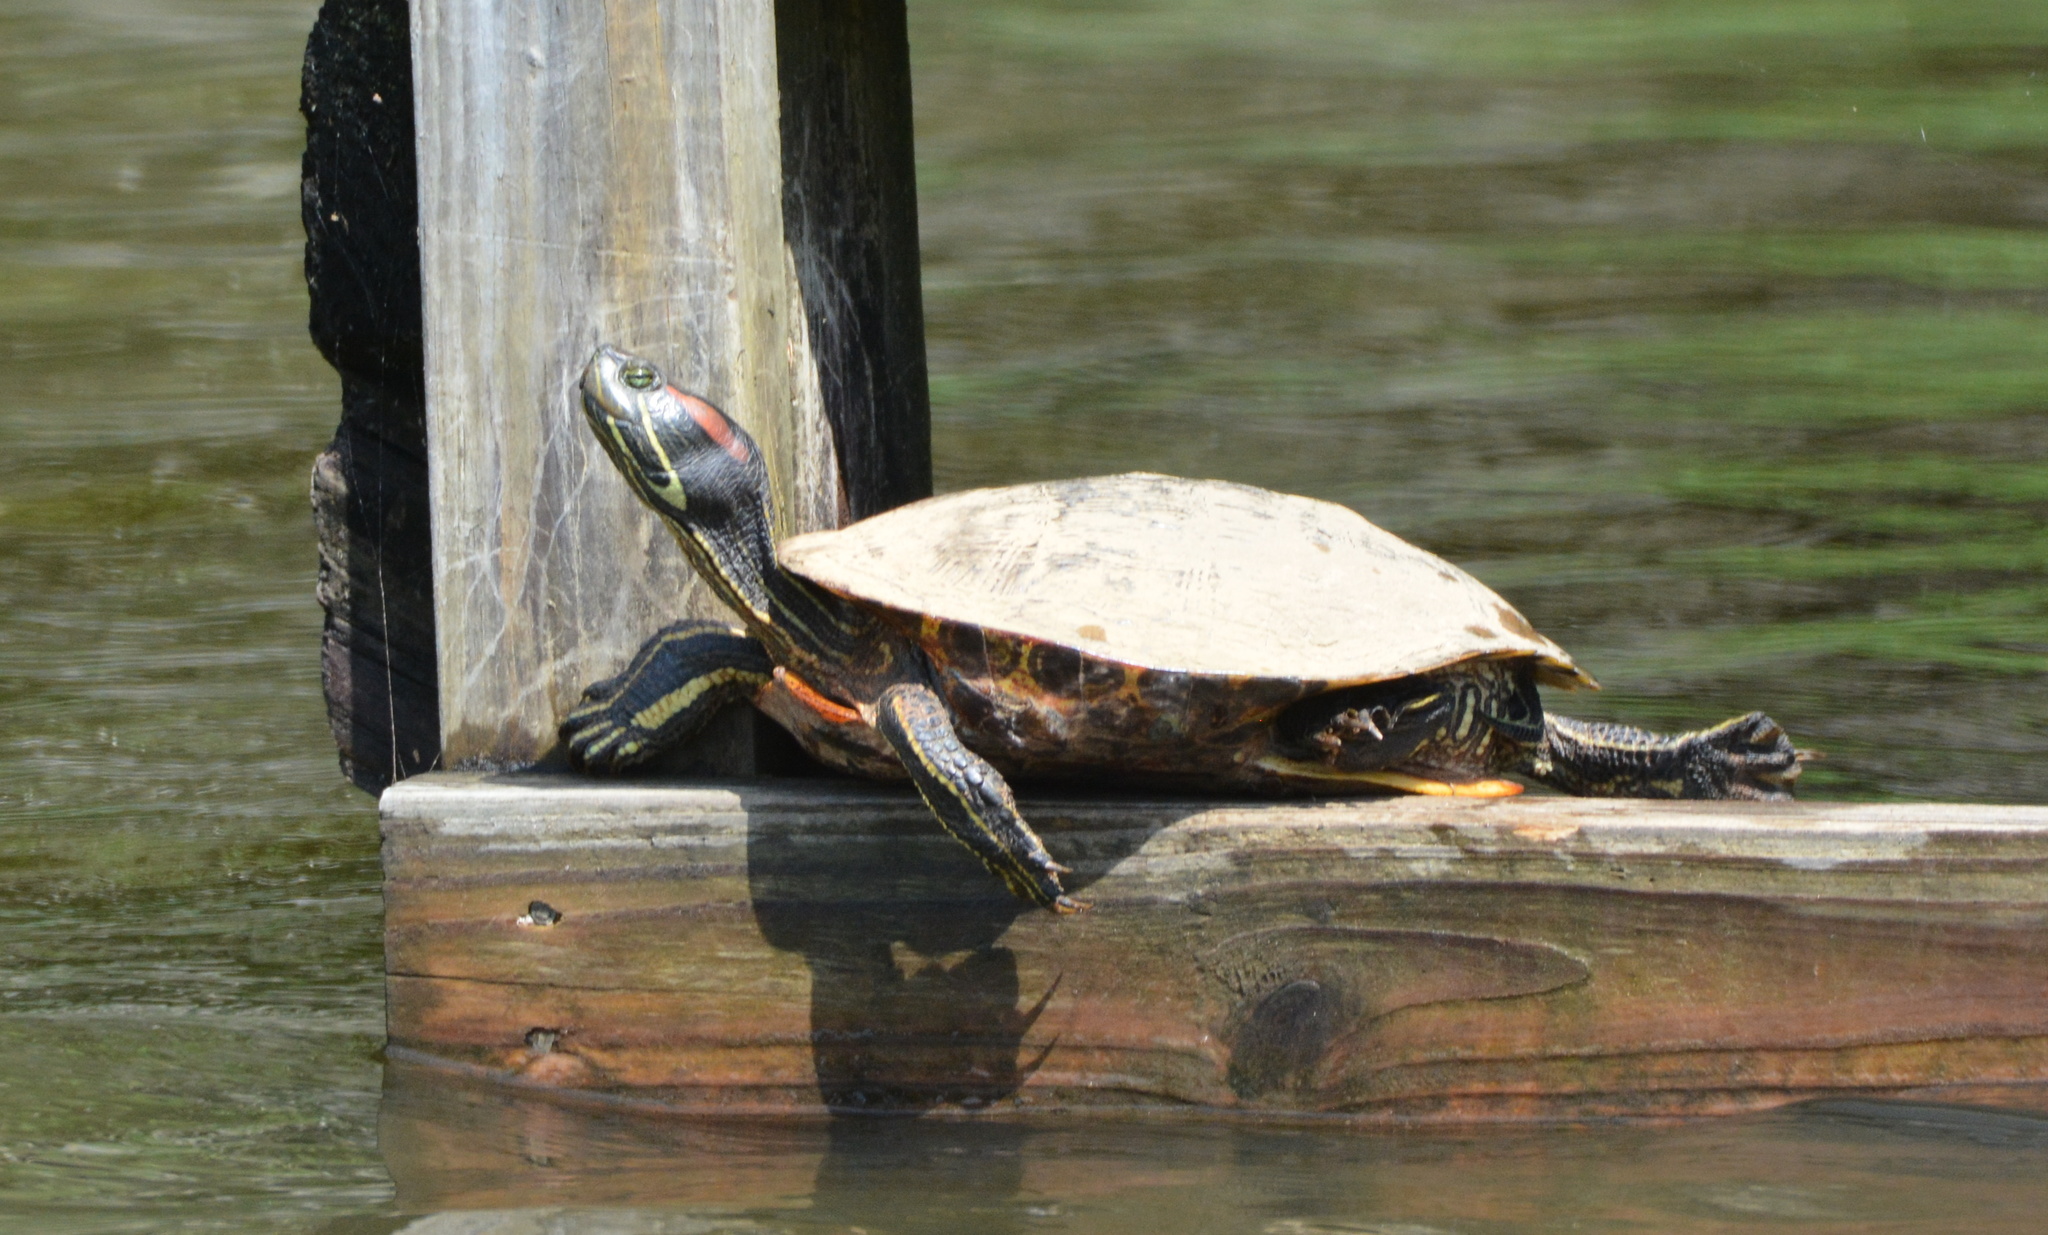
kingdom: Animalia
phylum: Chordata
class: Testudines
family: Emydidae
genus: Trachemys
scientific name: Trachemys scripta
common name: Slider
